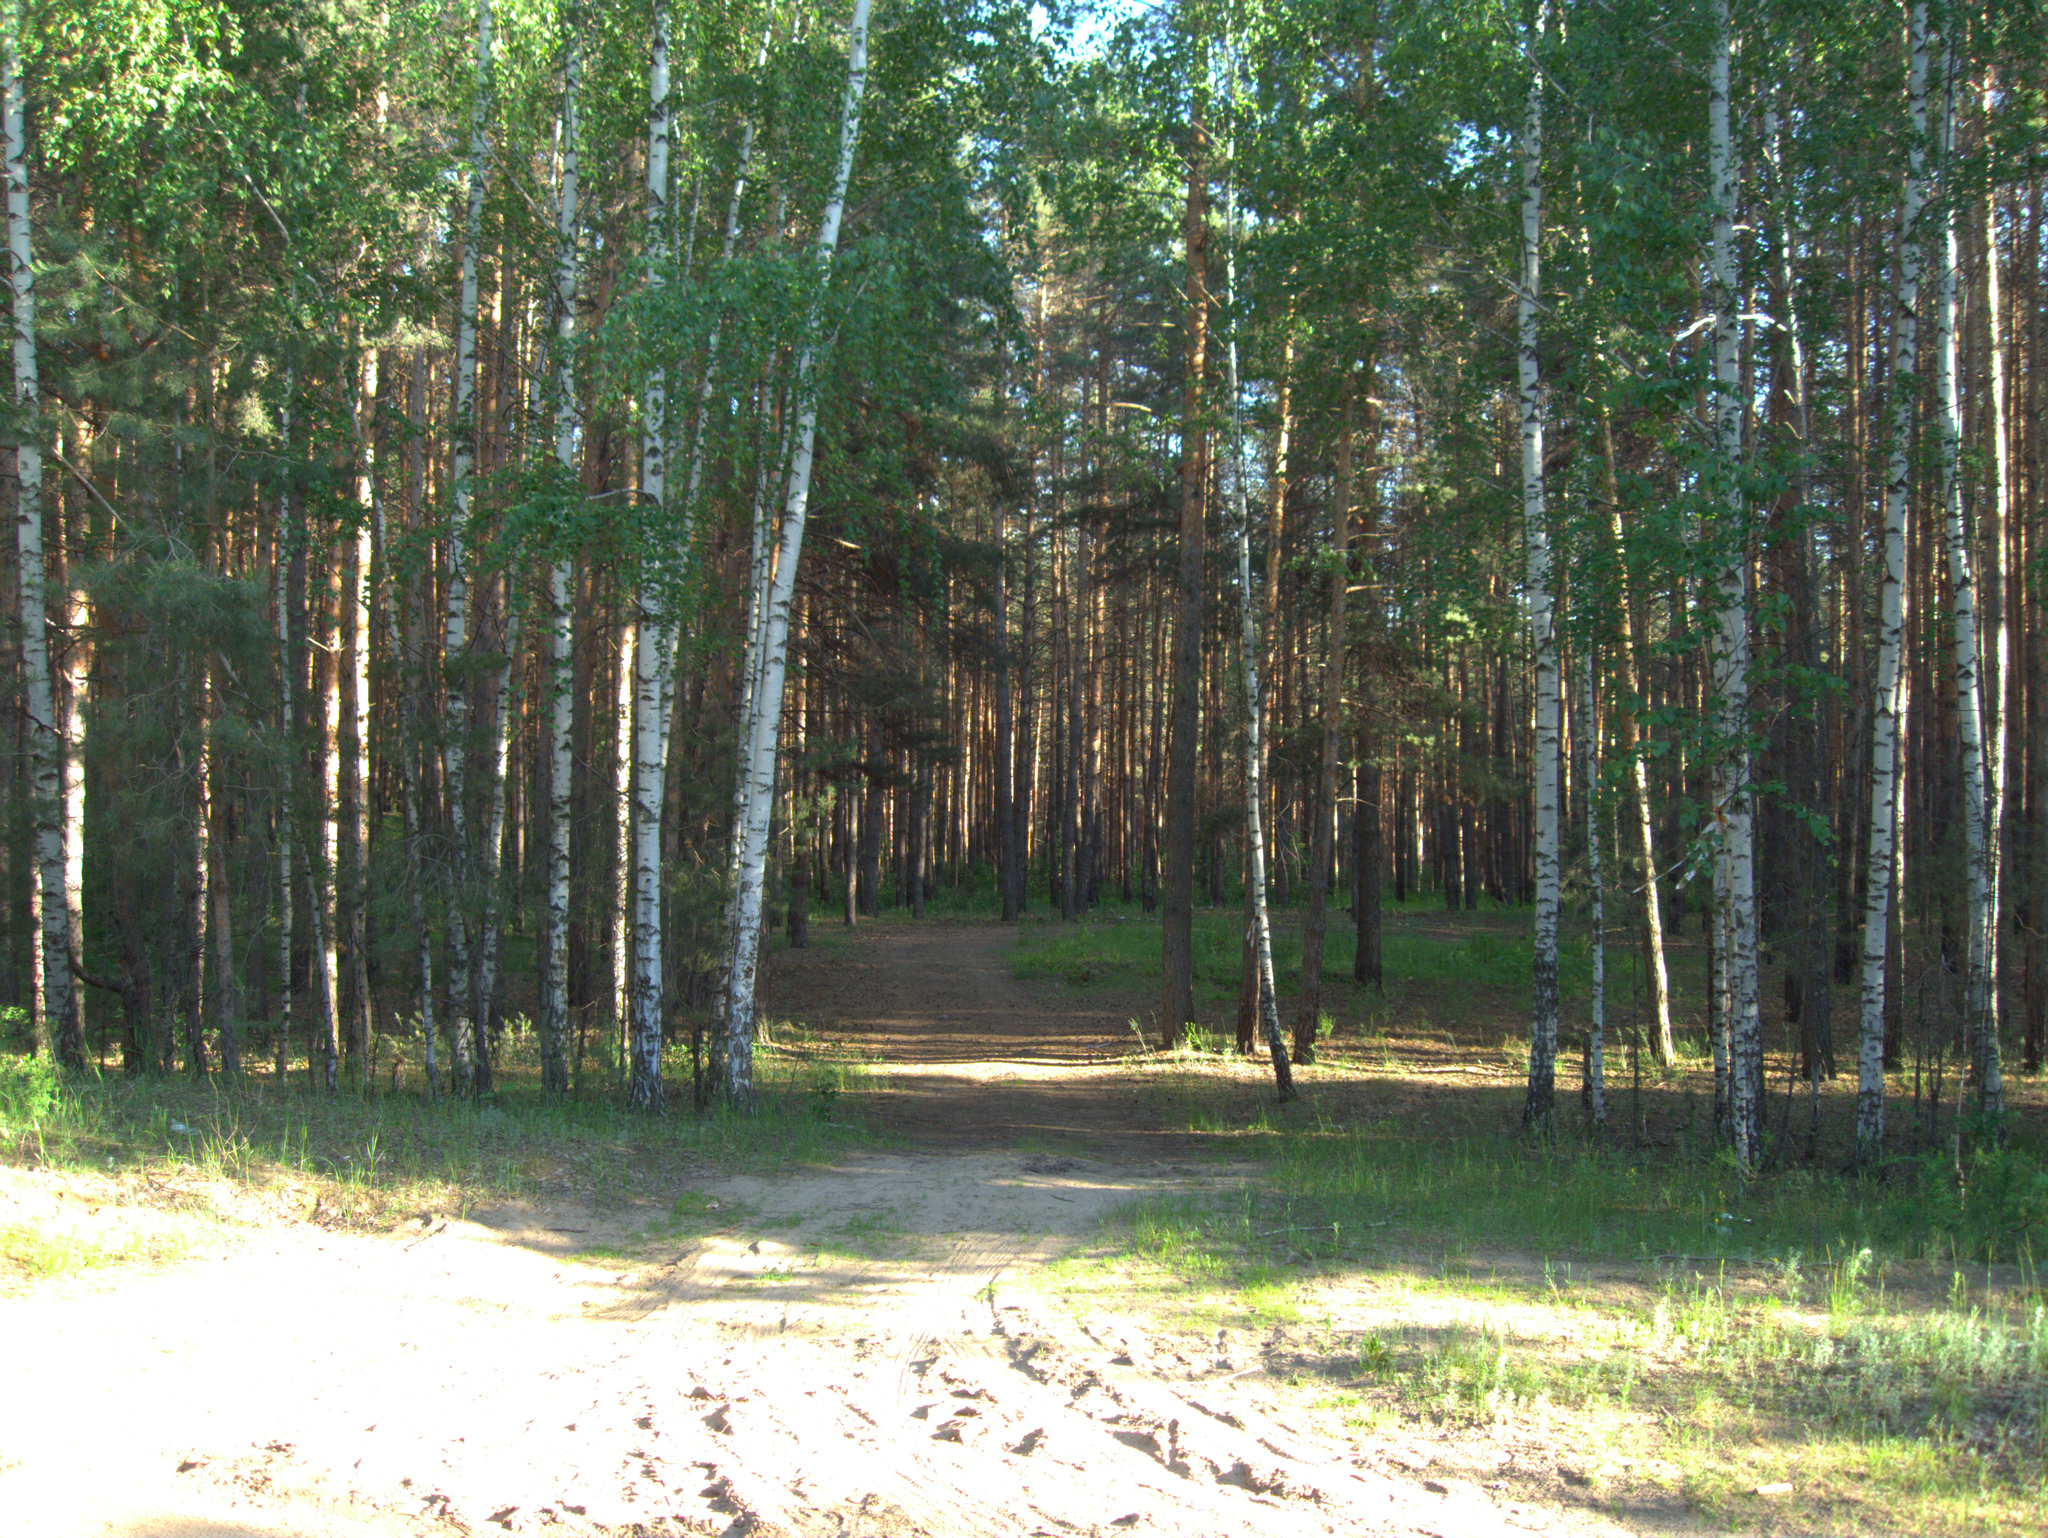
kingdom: Plantae
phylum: Tracheophyta
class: Magnoliopsida
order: Fagales
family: Betulaceae
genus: Betula
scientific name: Betula pendula
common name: Silver birch
